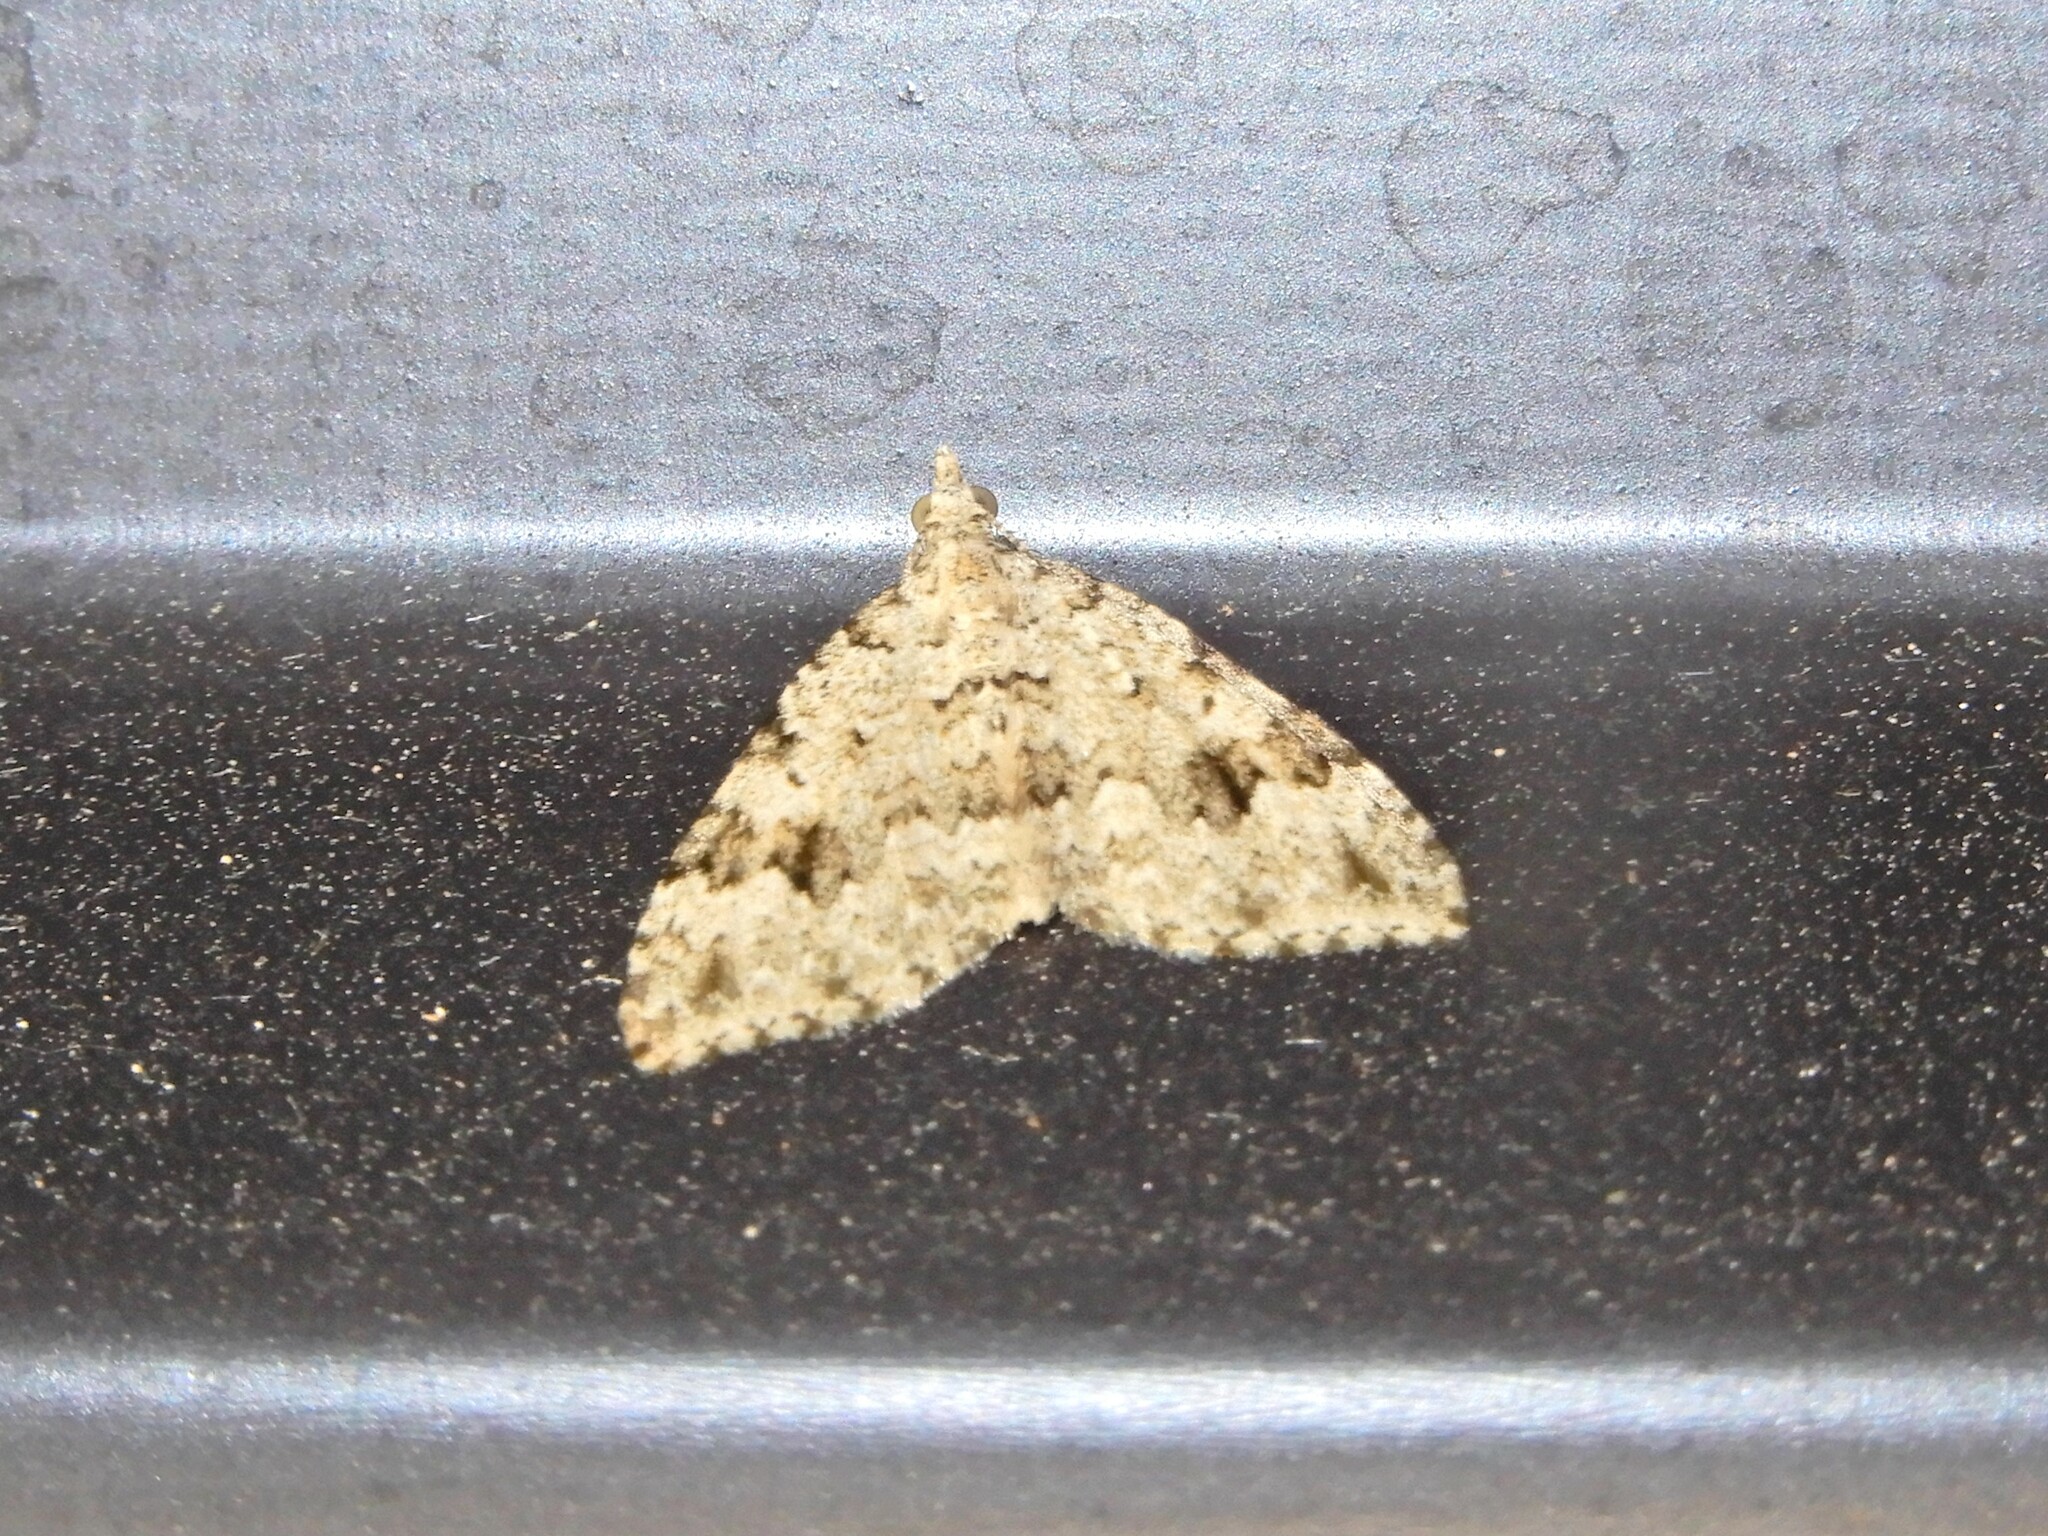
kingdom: Animalia
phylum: Arthropoda
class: Insecta
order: Lepidoptera
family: Geometridae
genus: Helastia
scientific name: Helastia cinerearia
